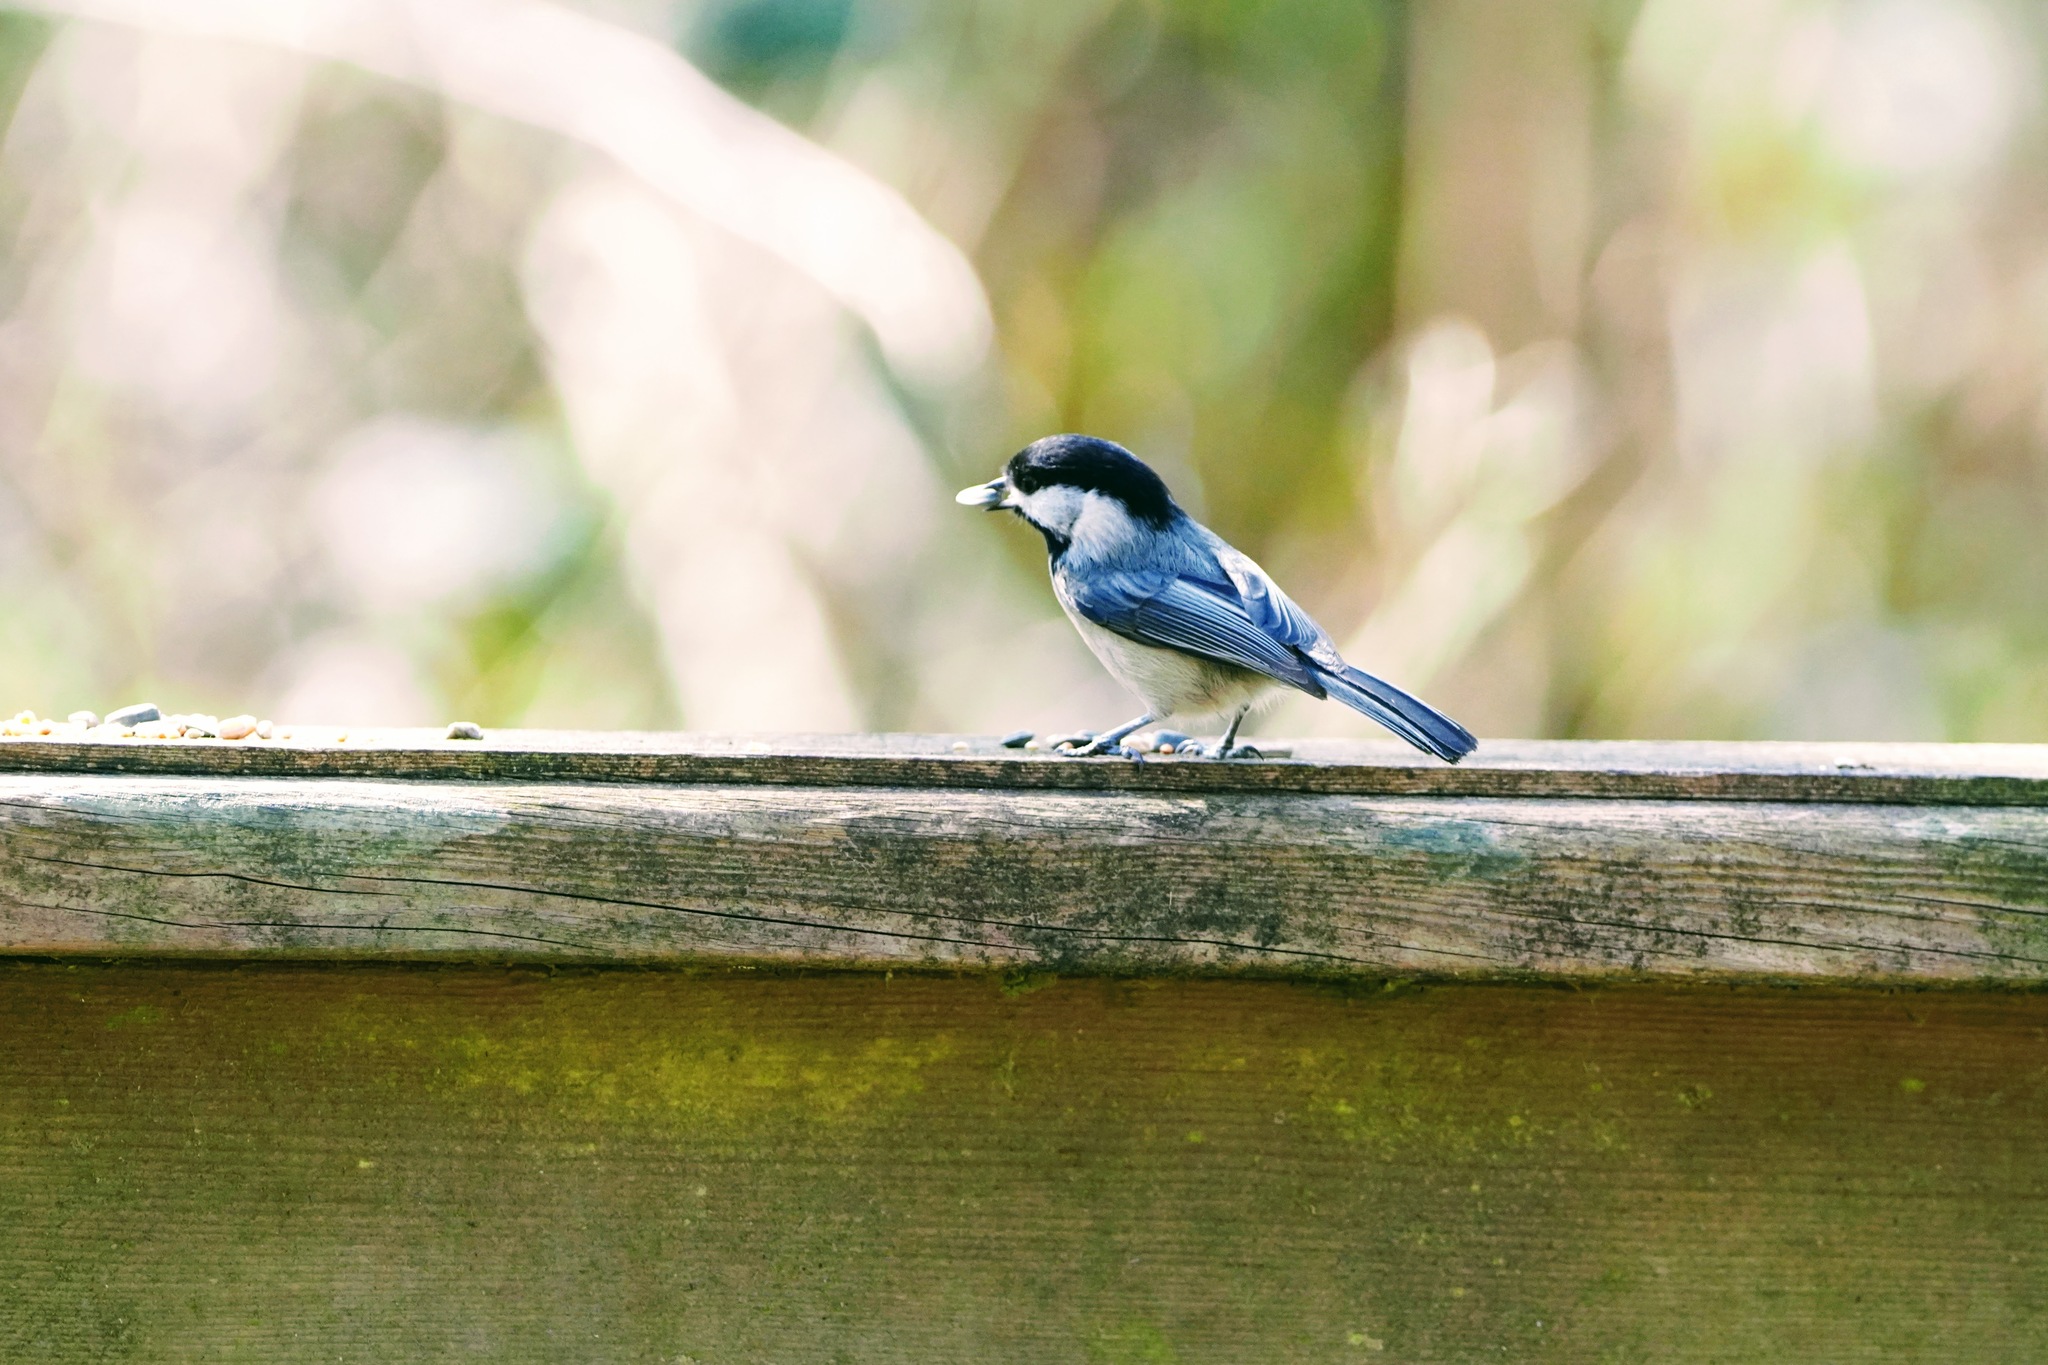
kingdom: Animalia
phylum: Chordata
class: Aves
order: Passeriformes
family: Paridae
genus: Poecile
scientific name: Poecile atricapillus
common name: Black-capped chickadee
